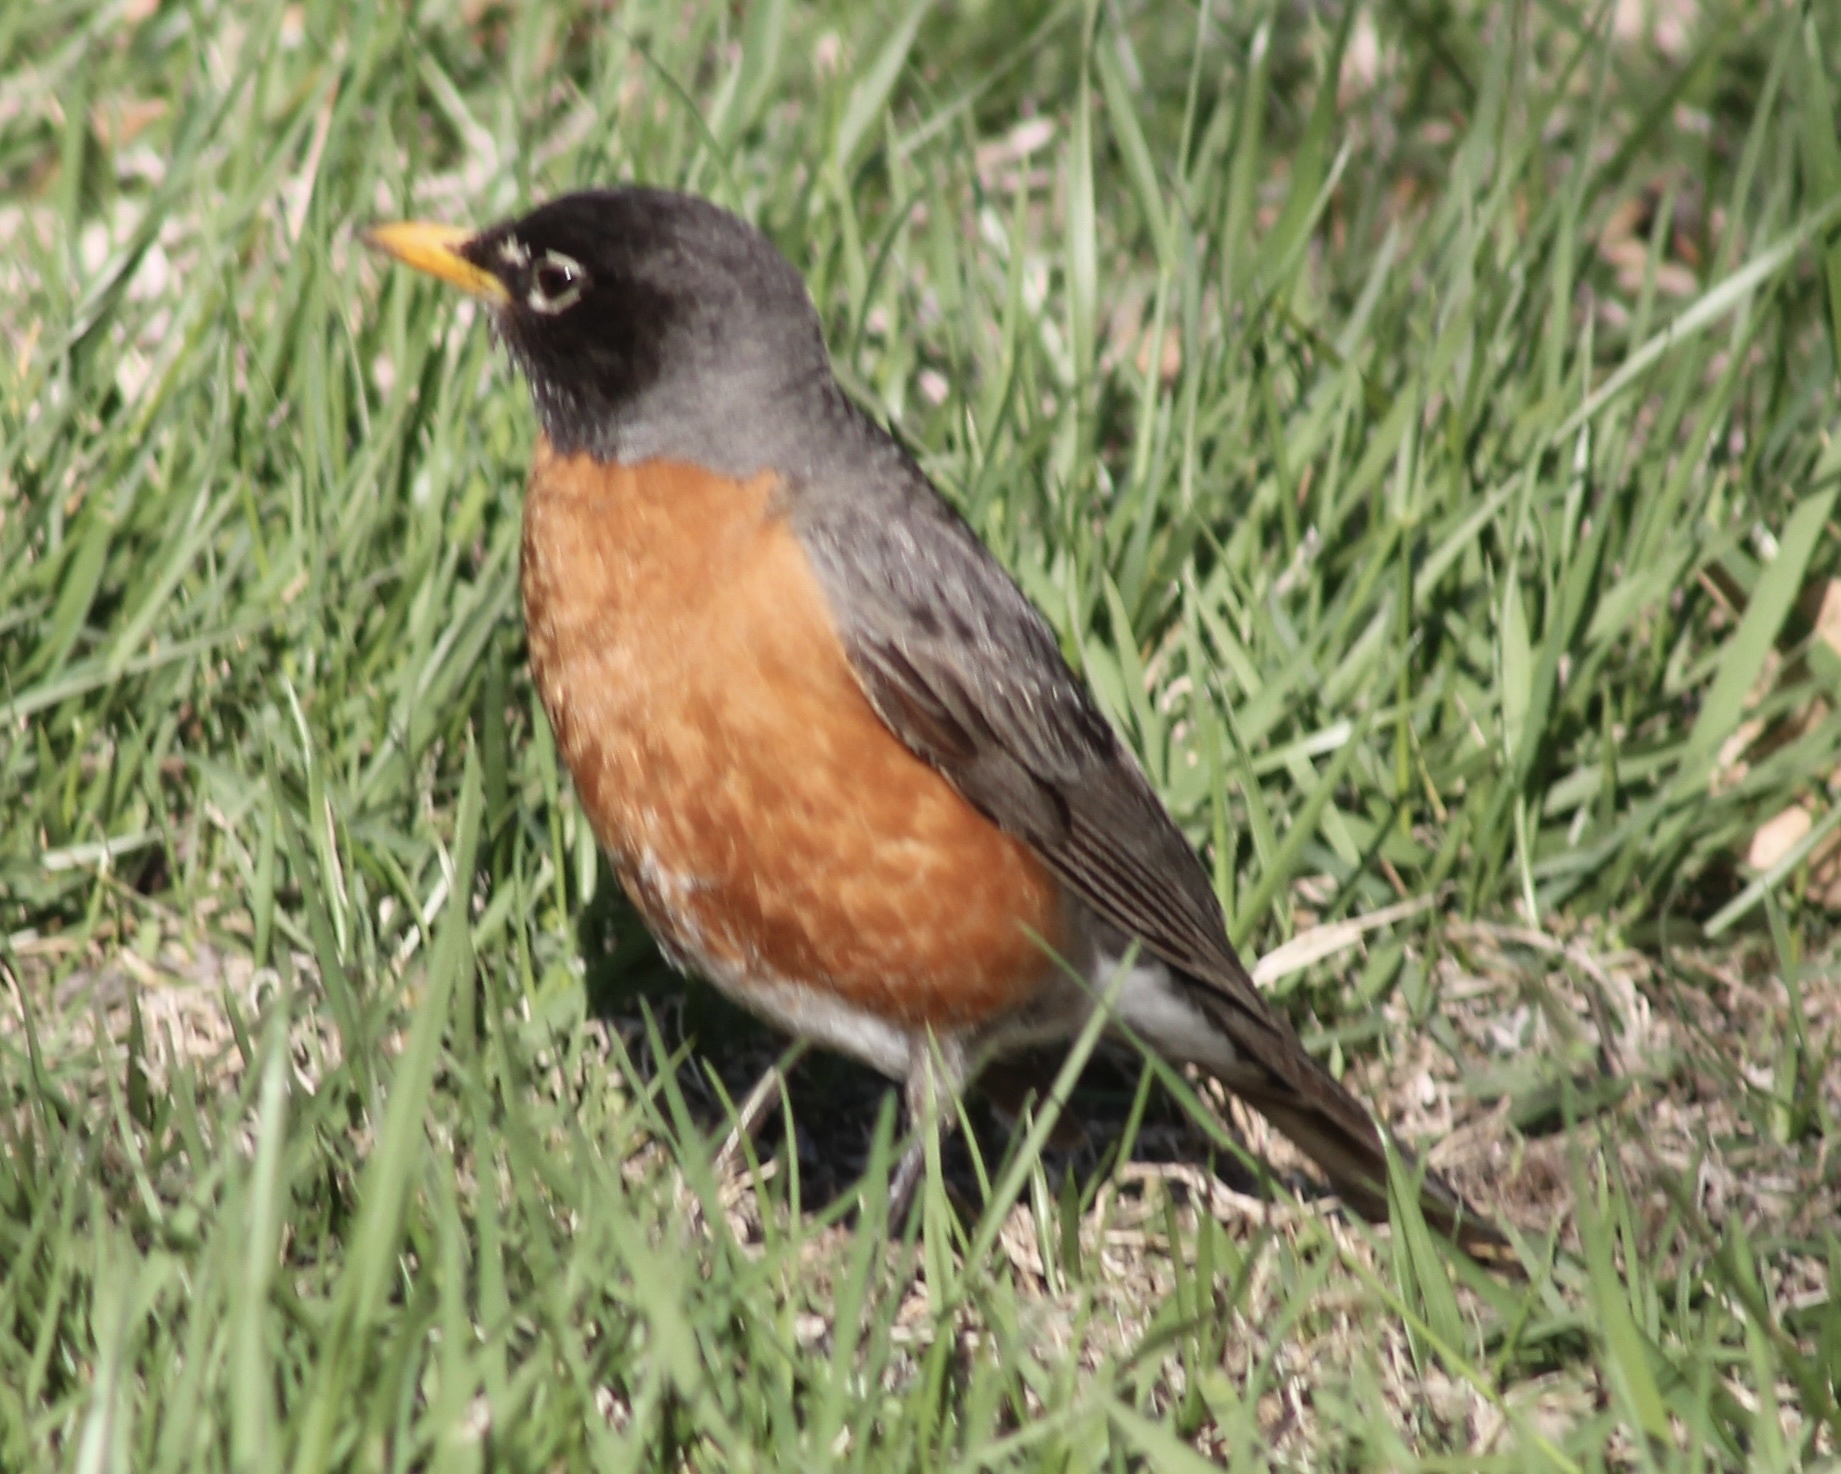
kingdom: Animalia
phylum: Chordata
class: Aves
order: Passeriformes
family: Turdidae
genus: Turdus
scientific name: Turdus migratorius
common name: American robin
